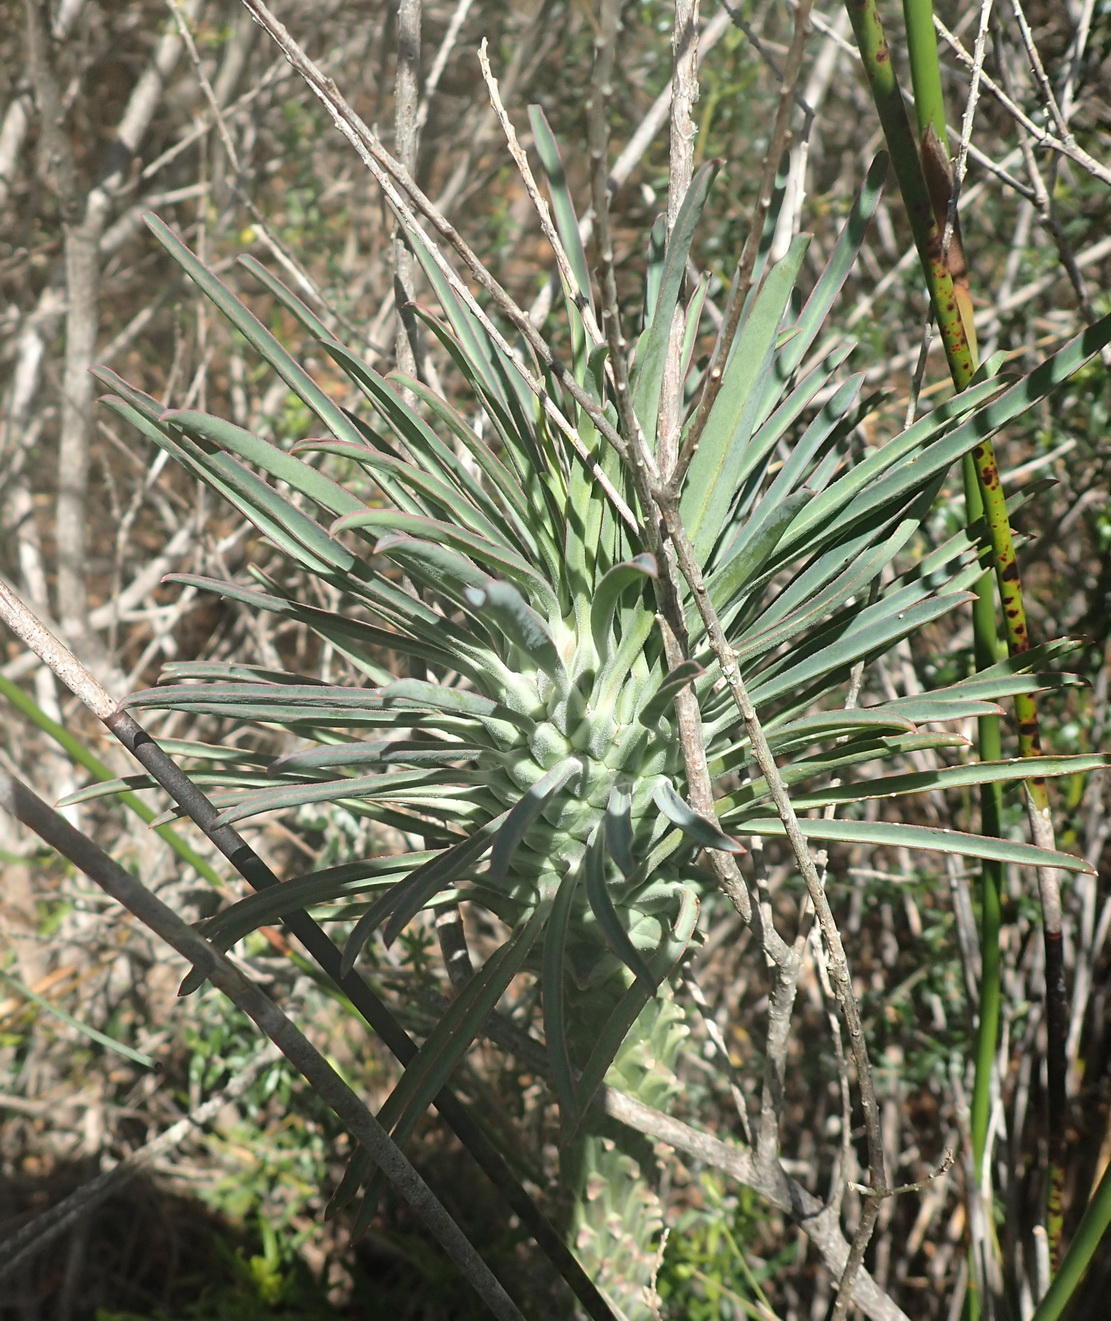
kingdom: Plantae
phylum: Tracheophyta
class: Magnoliopsida
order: Malpighiales
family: Euphorbiaceae
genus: Euphorbia
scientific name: Euphorbia clandestina
